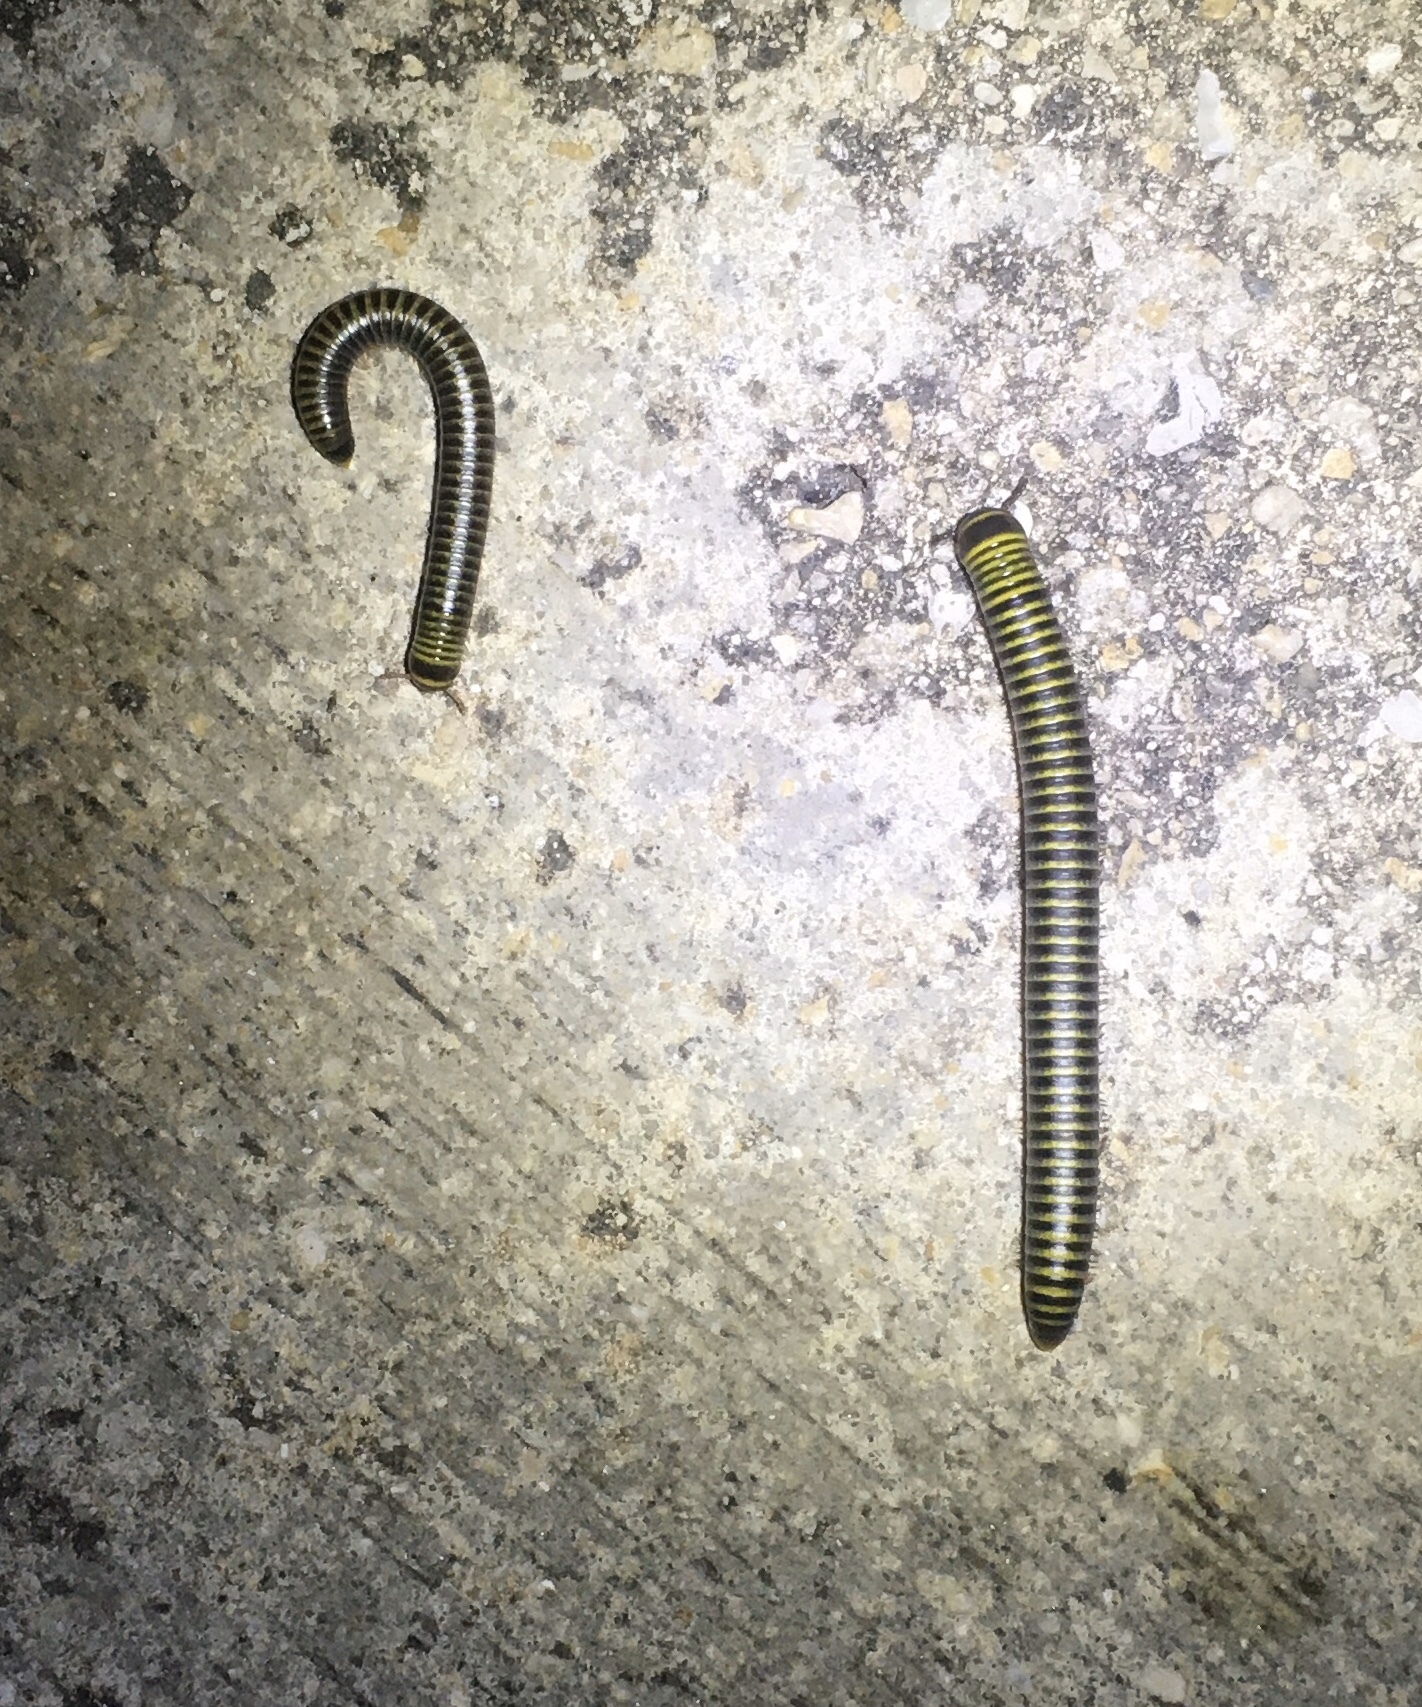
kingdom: Animalia
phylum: Arthropoda
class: Diplopoda
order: Spirobolida
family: Rhinocricidae
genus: Anadenobolus
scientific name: Anadenobolus monilicornis
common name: Caribbean millipede
